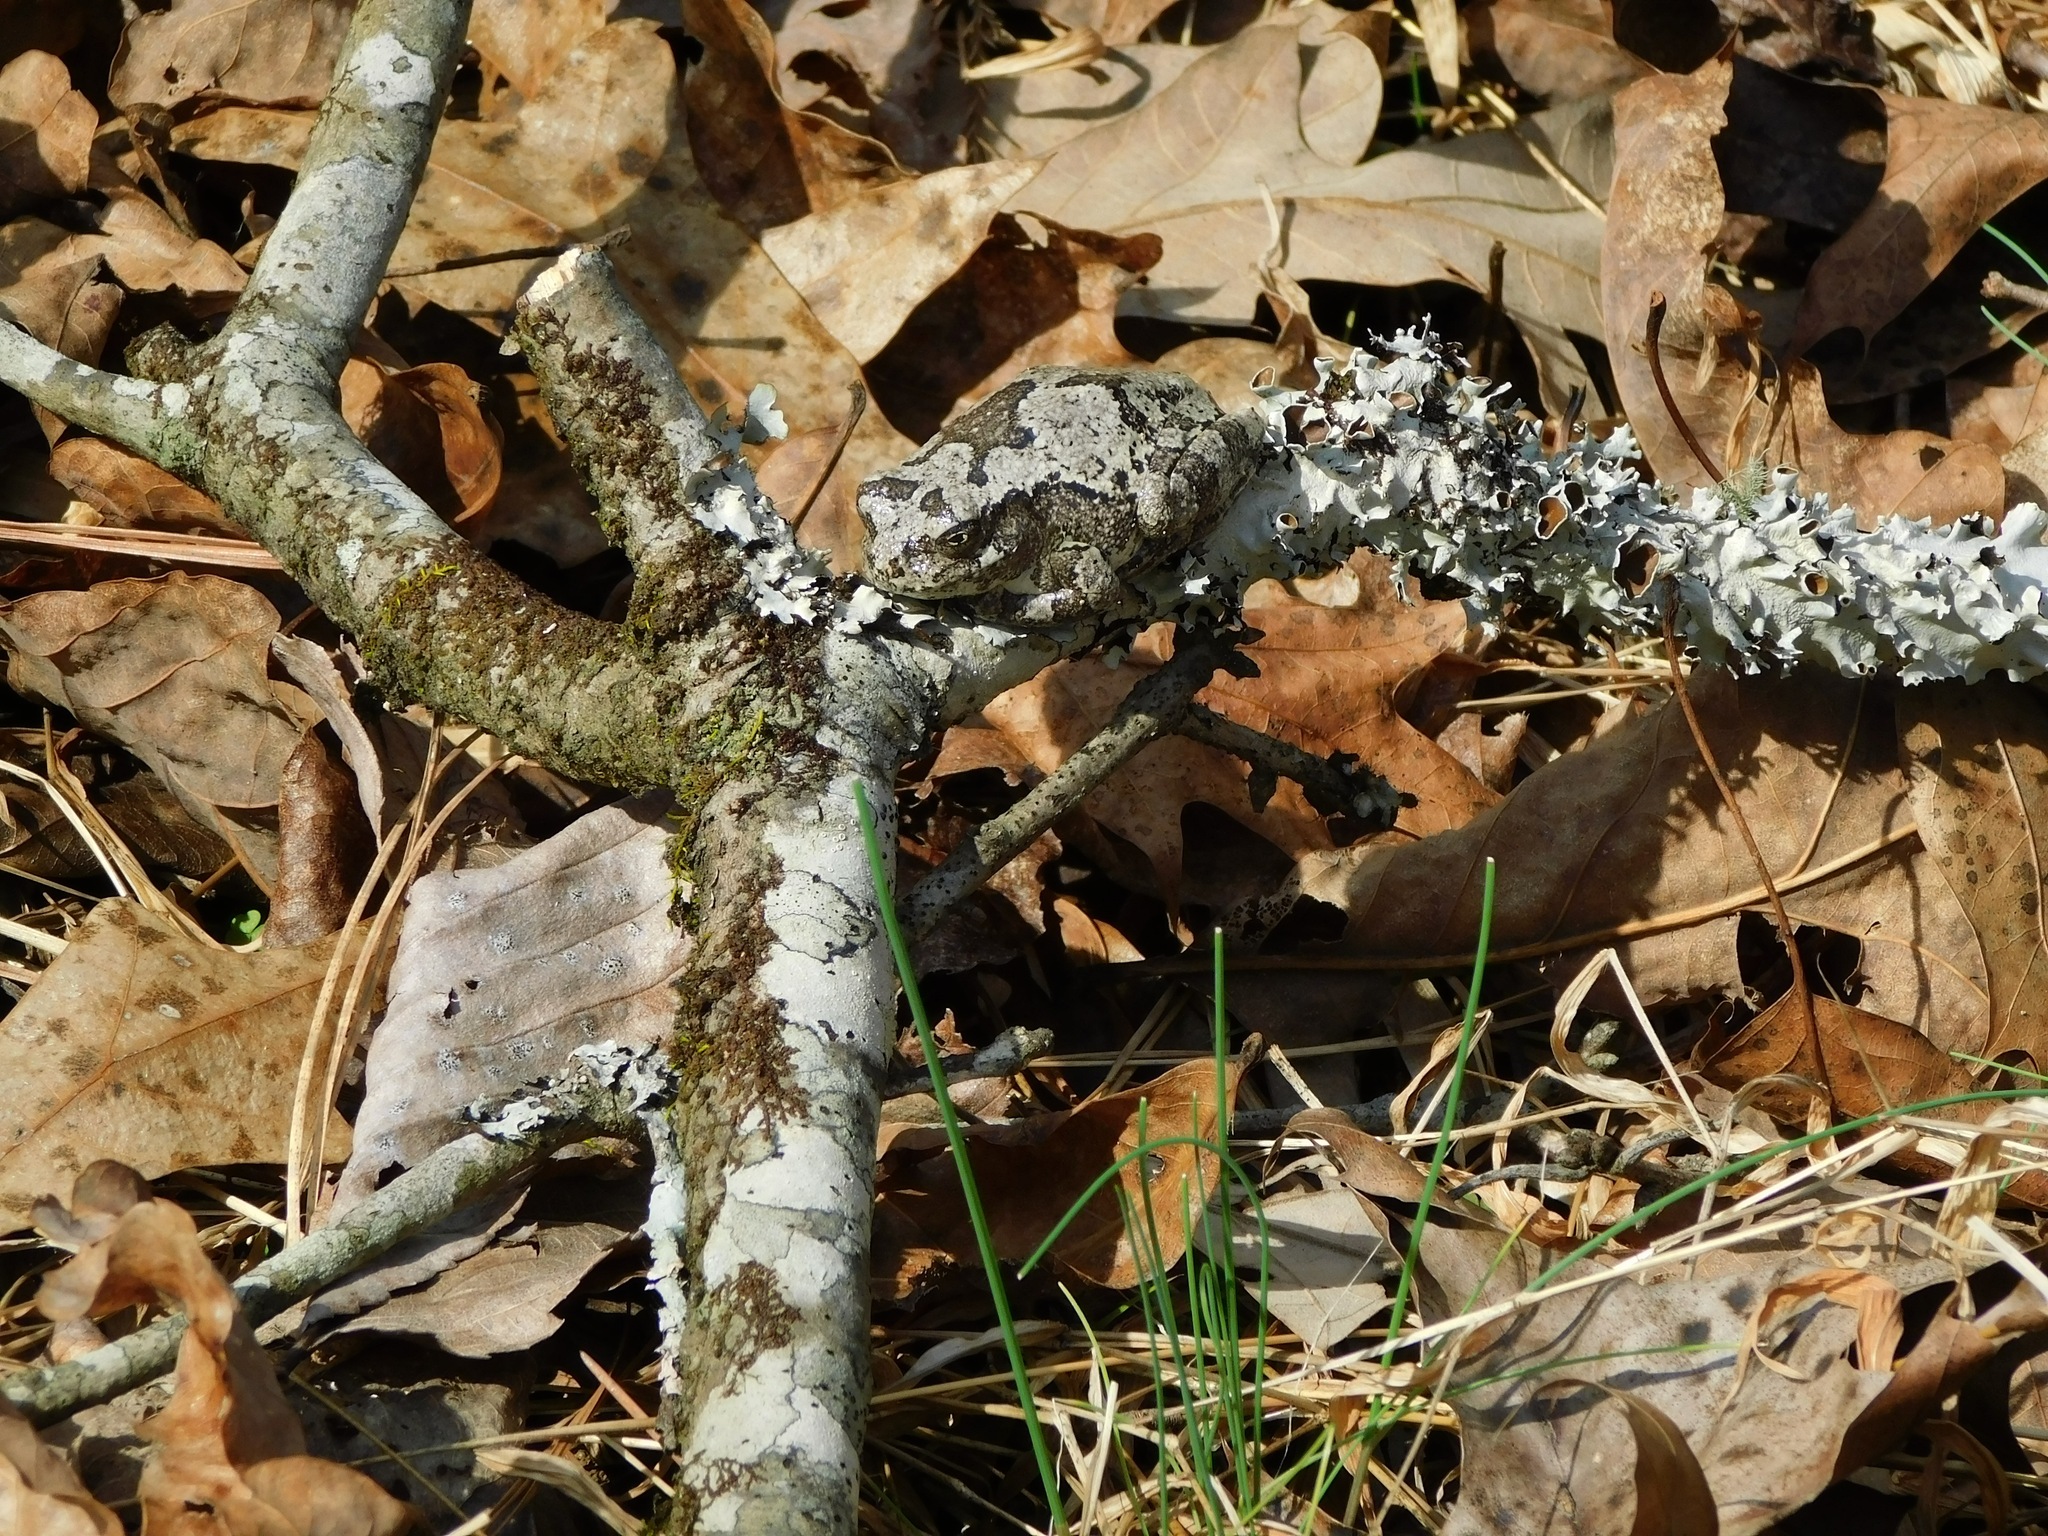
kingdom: Animalia
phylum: Chordata
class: Amphibia
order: Anura
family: Hylidae
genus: Dryophytes
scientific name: Dryophytes chrysoscelis
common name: Cope's gray treefrog
